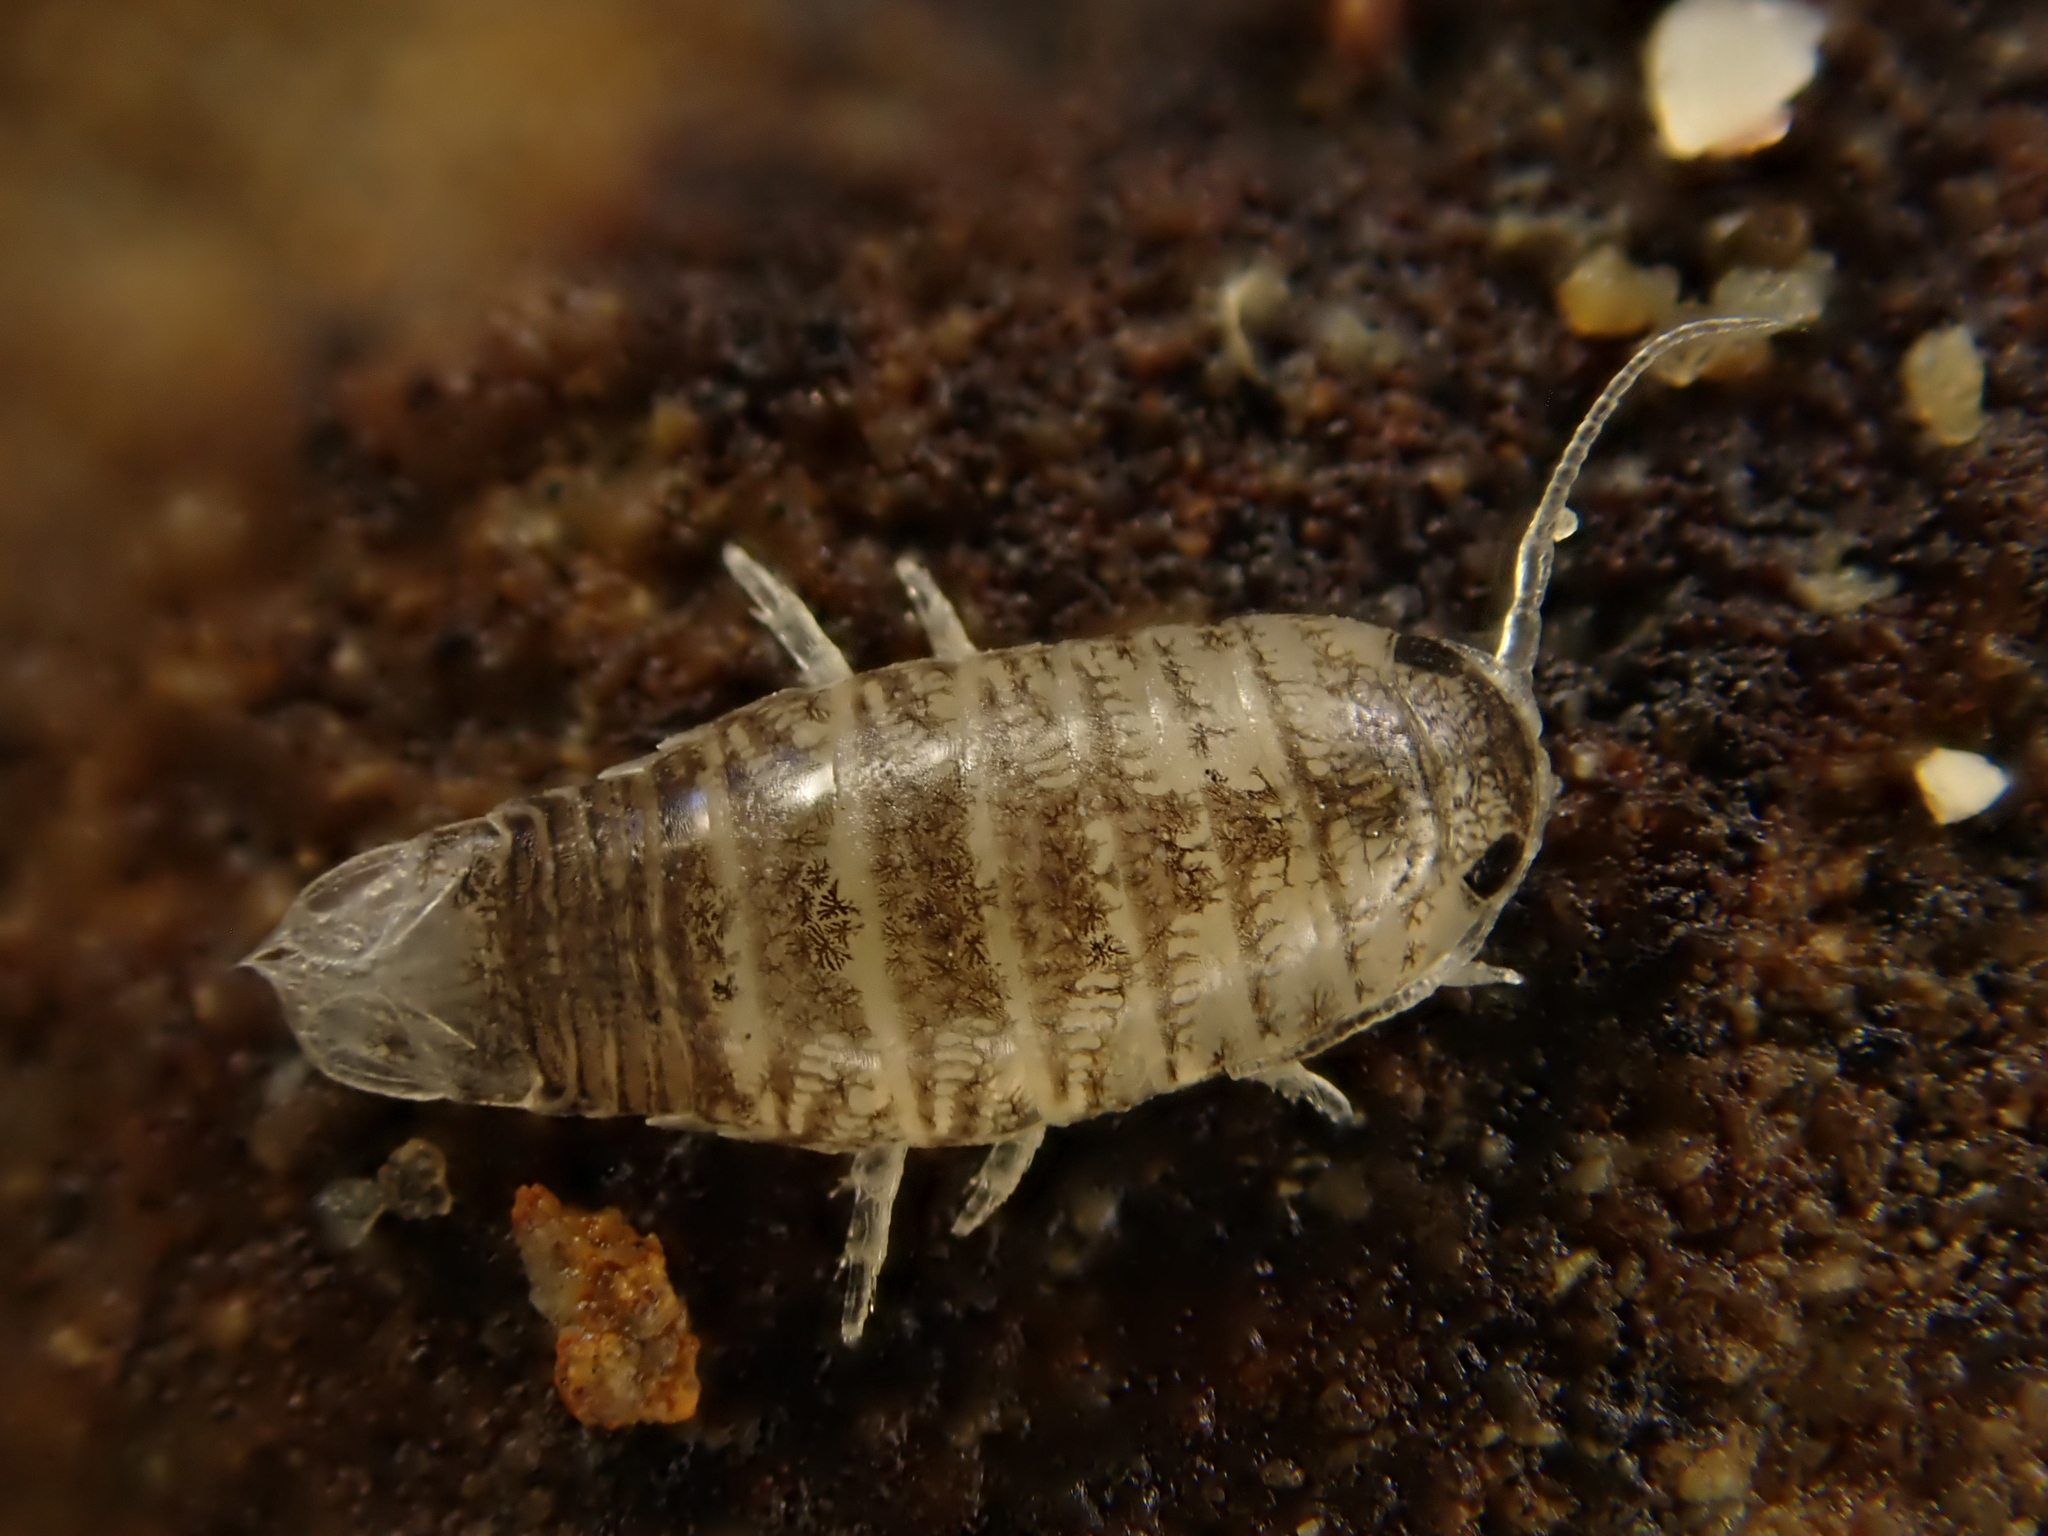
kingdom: Animalia
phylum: Arthropoda
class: Malacostraca
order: Isopoda
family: Cirolanidae
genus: Eurylana
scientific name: Eurylana arcuata
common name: Cirolanid isopod
